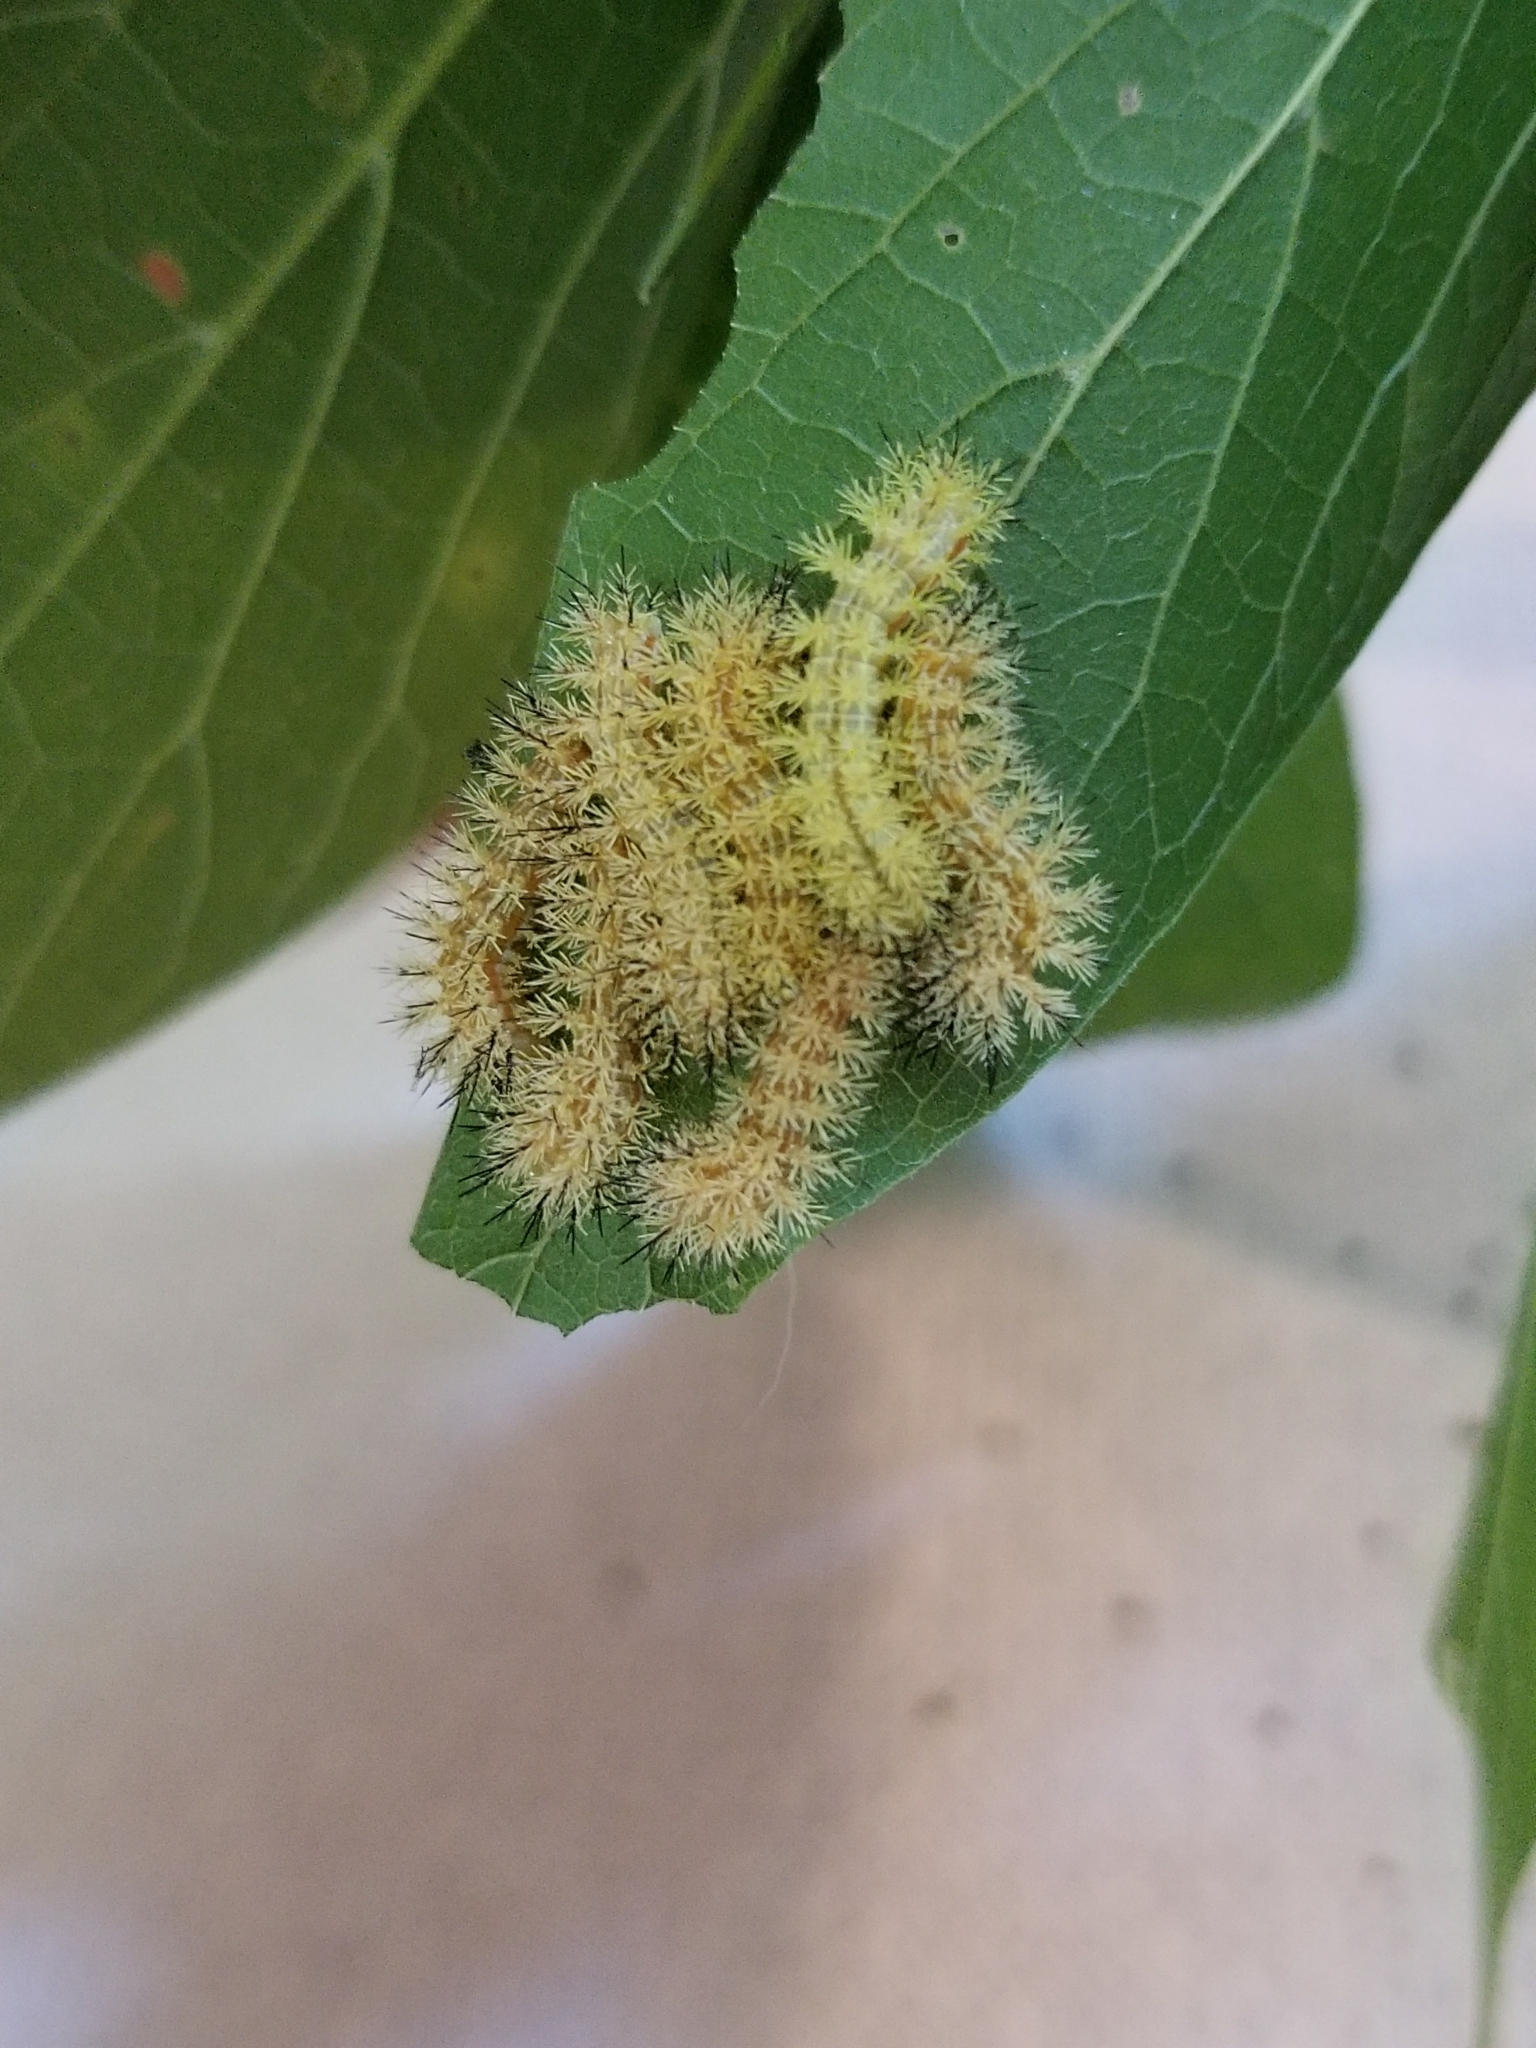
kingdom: Animalia
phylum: Arthropoda
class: Insecta
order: Lepidoptera
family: Saturniidae
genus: Automeris
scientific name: Automeris io
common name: Io moth
